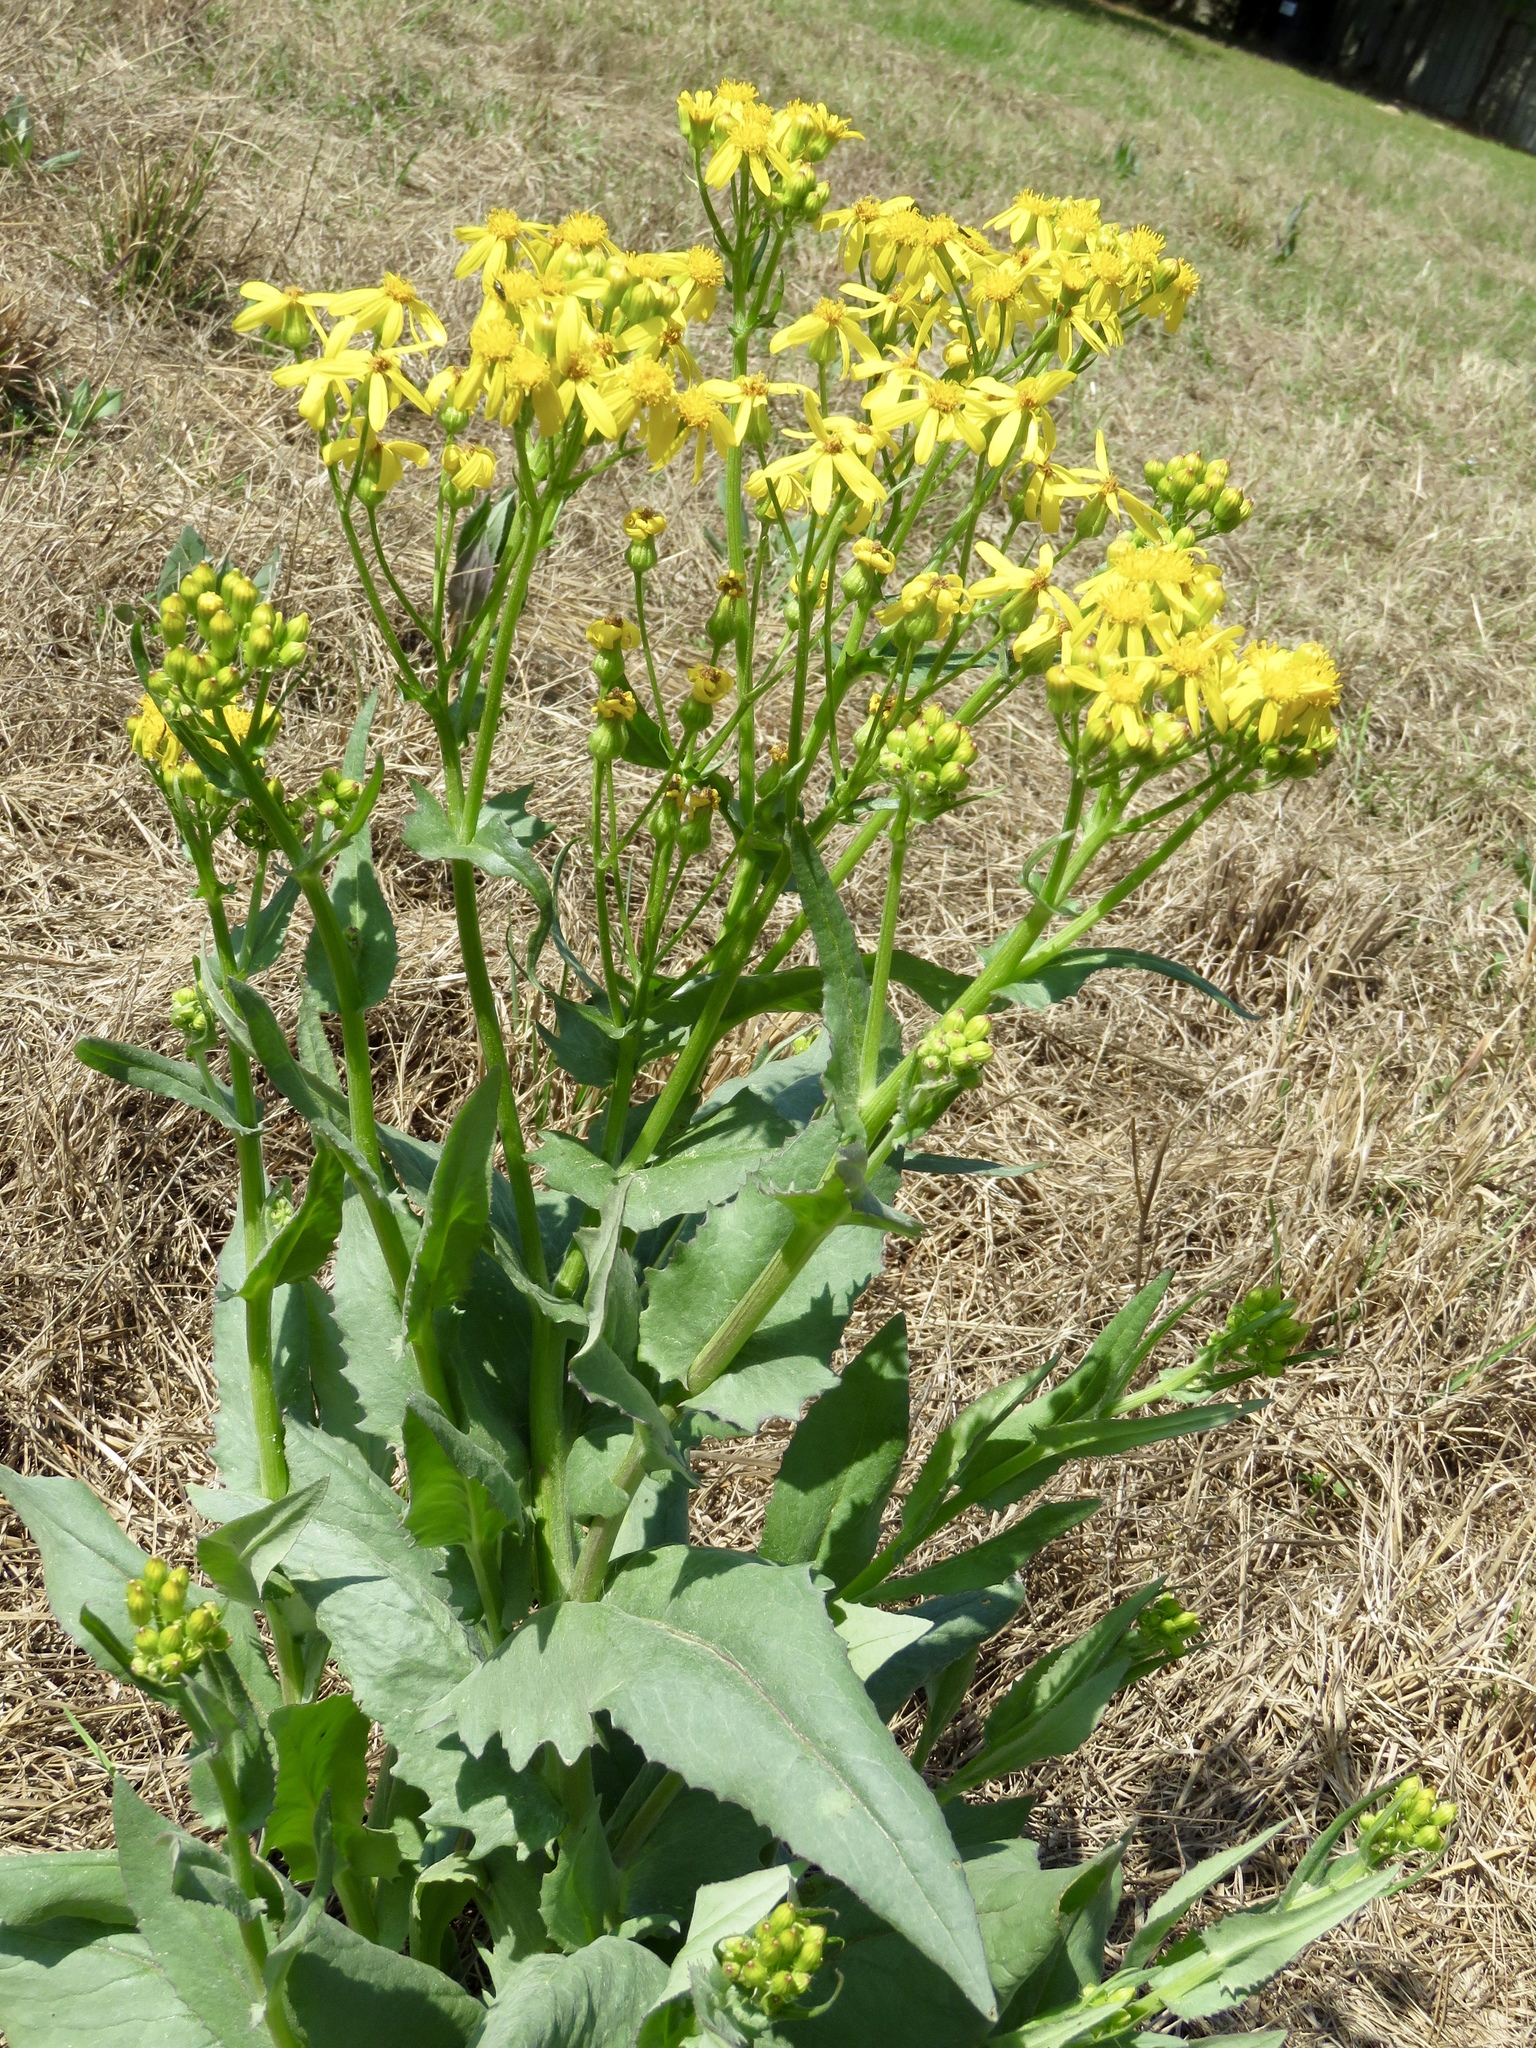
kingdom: Plantae
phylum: Tracheophyta
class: Magnoliopsida
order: Asterales
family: Asteraceae
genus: Senecio
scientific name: Senecio ampullaceus
